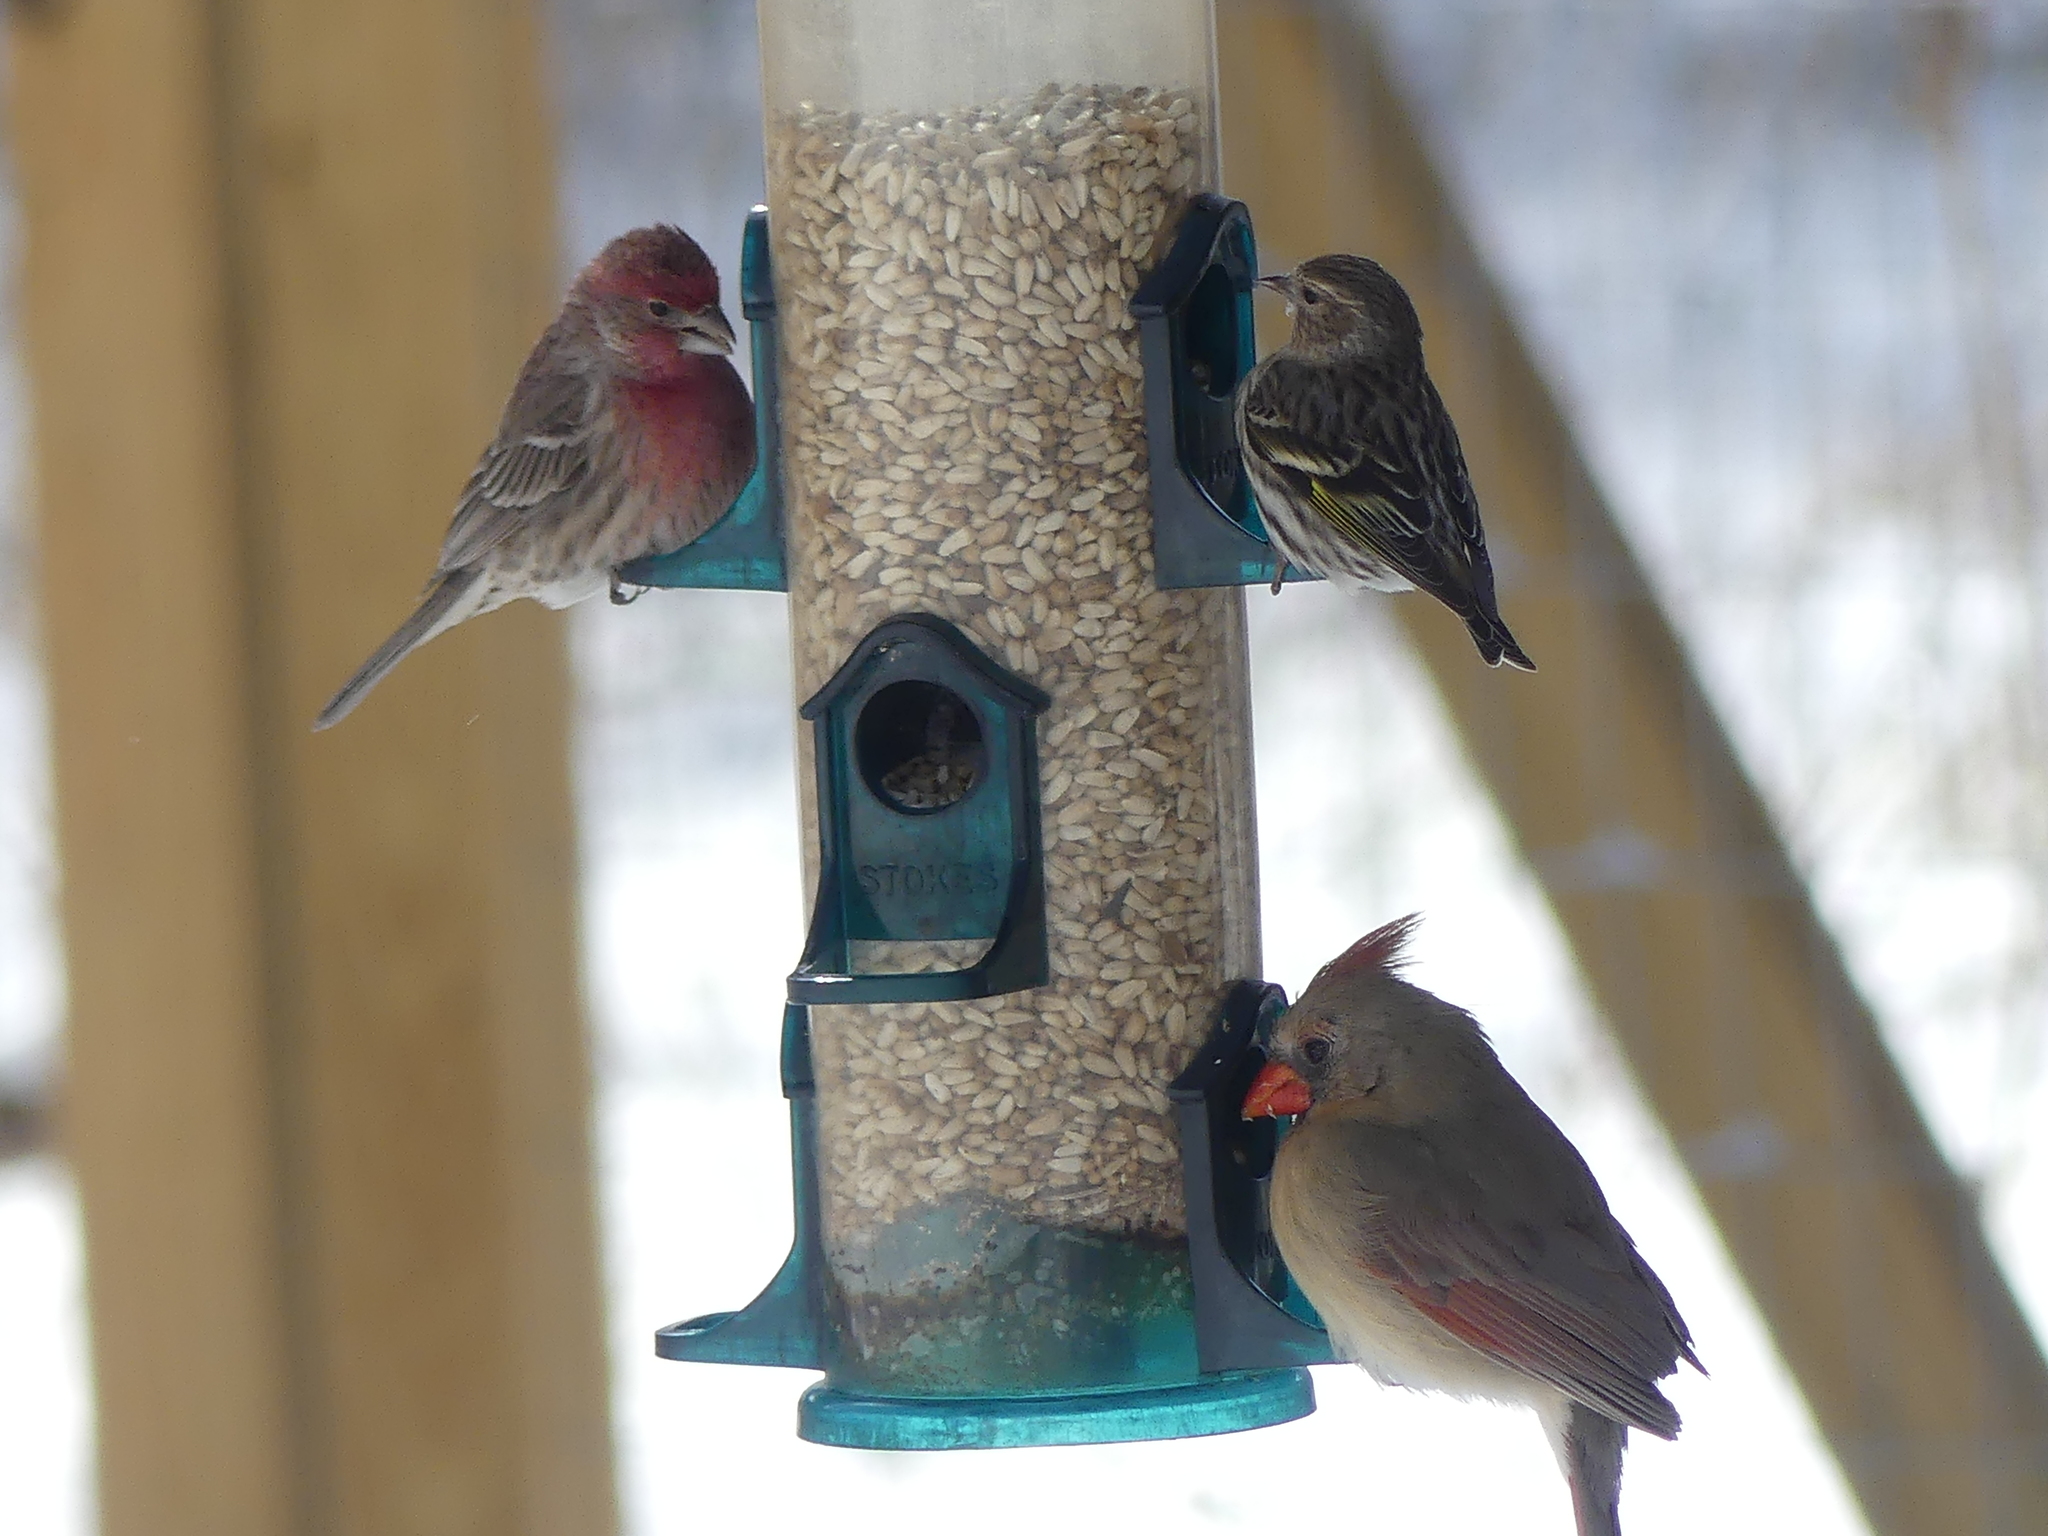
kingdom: Animalia
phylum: Chordata
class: Aves
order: Passeriformes
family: Fringillidae
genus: Haemorhous
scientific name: Haemorhous mexicanus
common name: House finch
